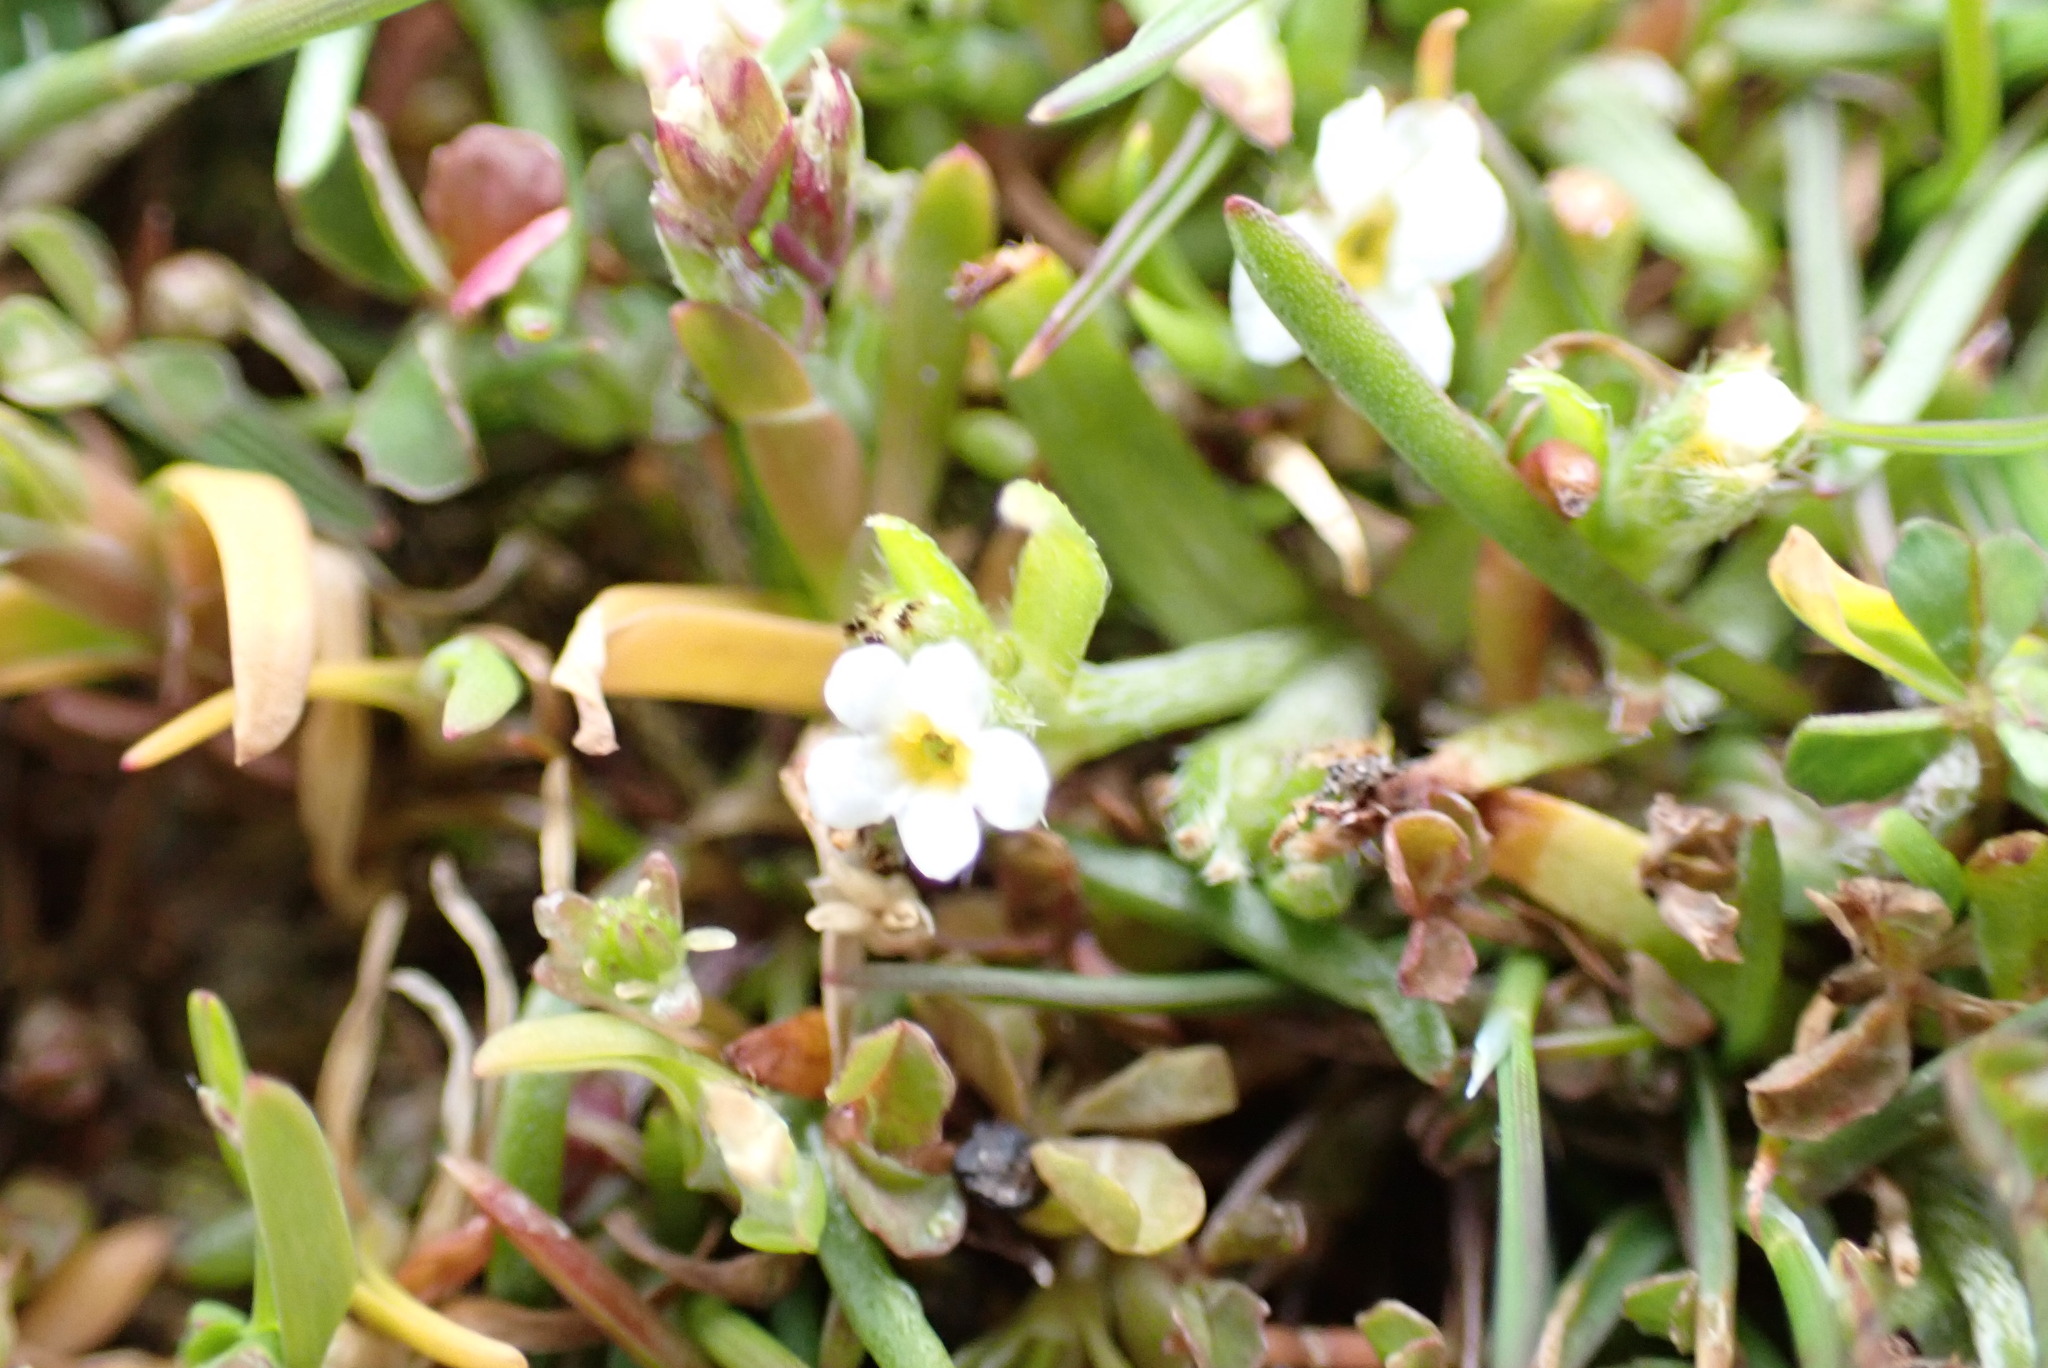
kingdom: Plantae
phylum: Tracheophyta
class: Magnoliopsida
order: Boraginales
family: Boraginaceae
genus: Plagiobothrys
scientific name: Plagiobothrys scouleri
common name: White forget-me-not
